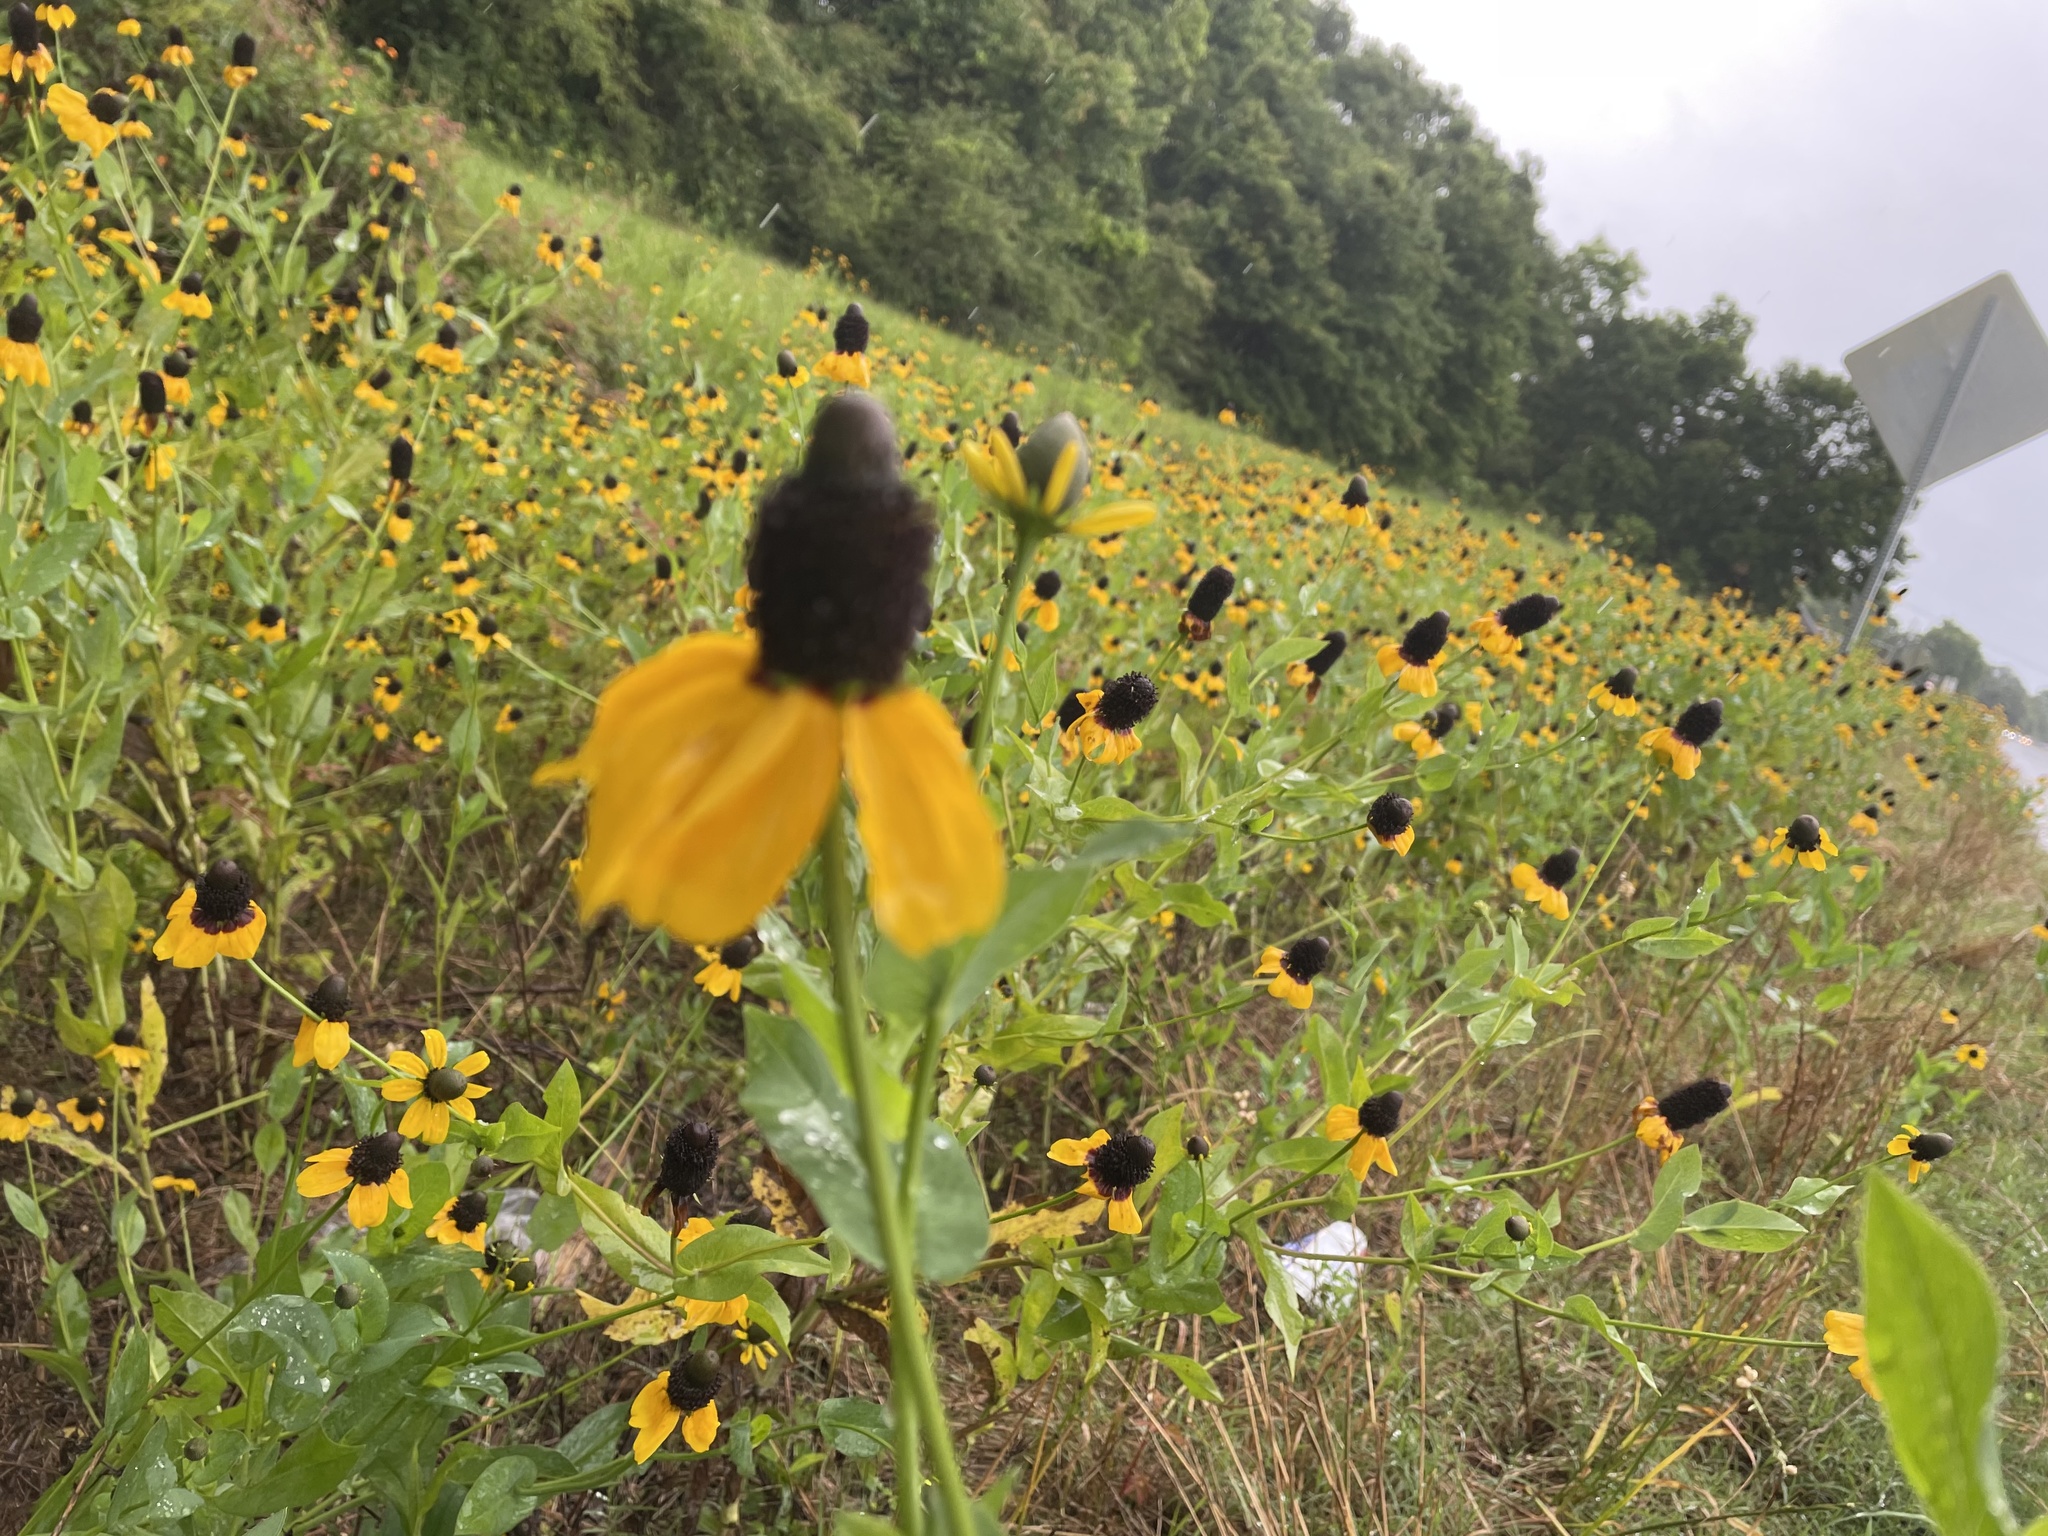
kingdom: Plantae
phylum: Tracheophyta
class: Magnoliopsida
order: Asterales
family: Asteraceae
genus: Rudbeckia
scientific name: Rudbeckia amplexicaulis
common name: Clasping-leaf coneflower
